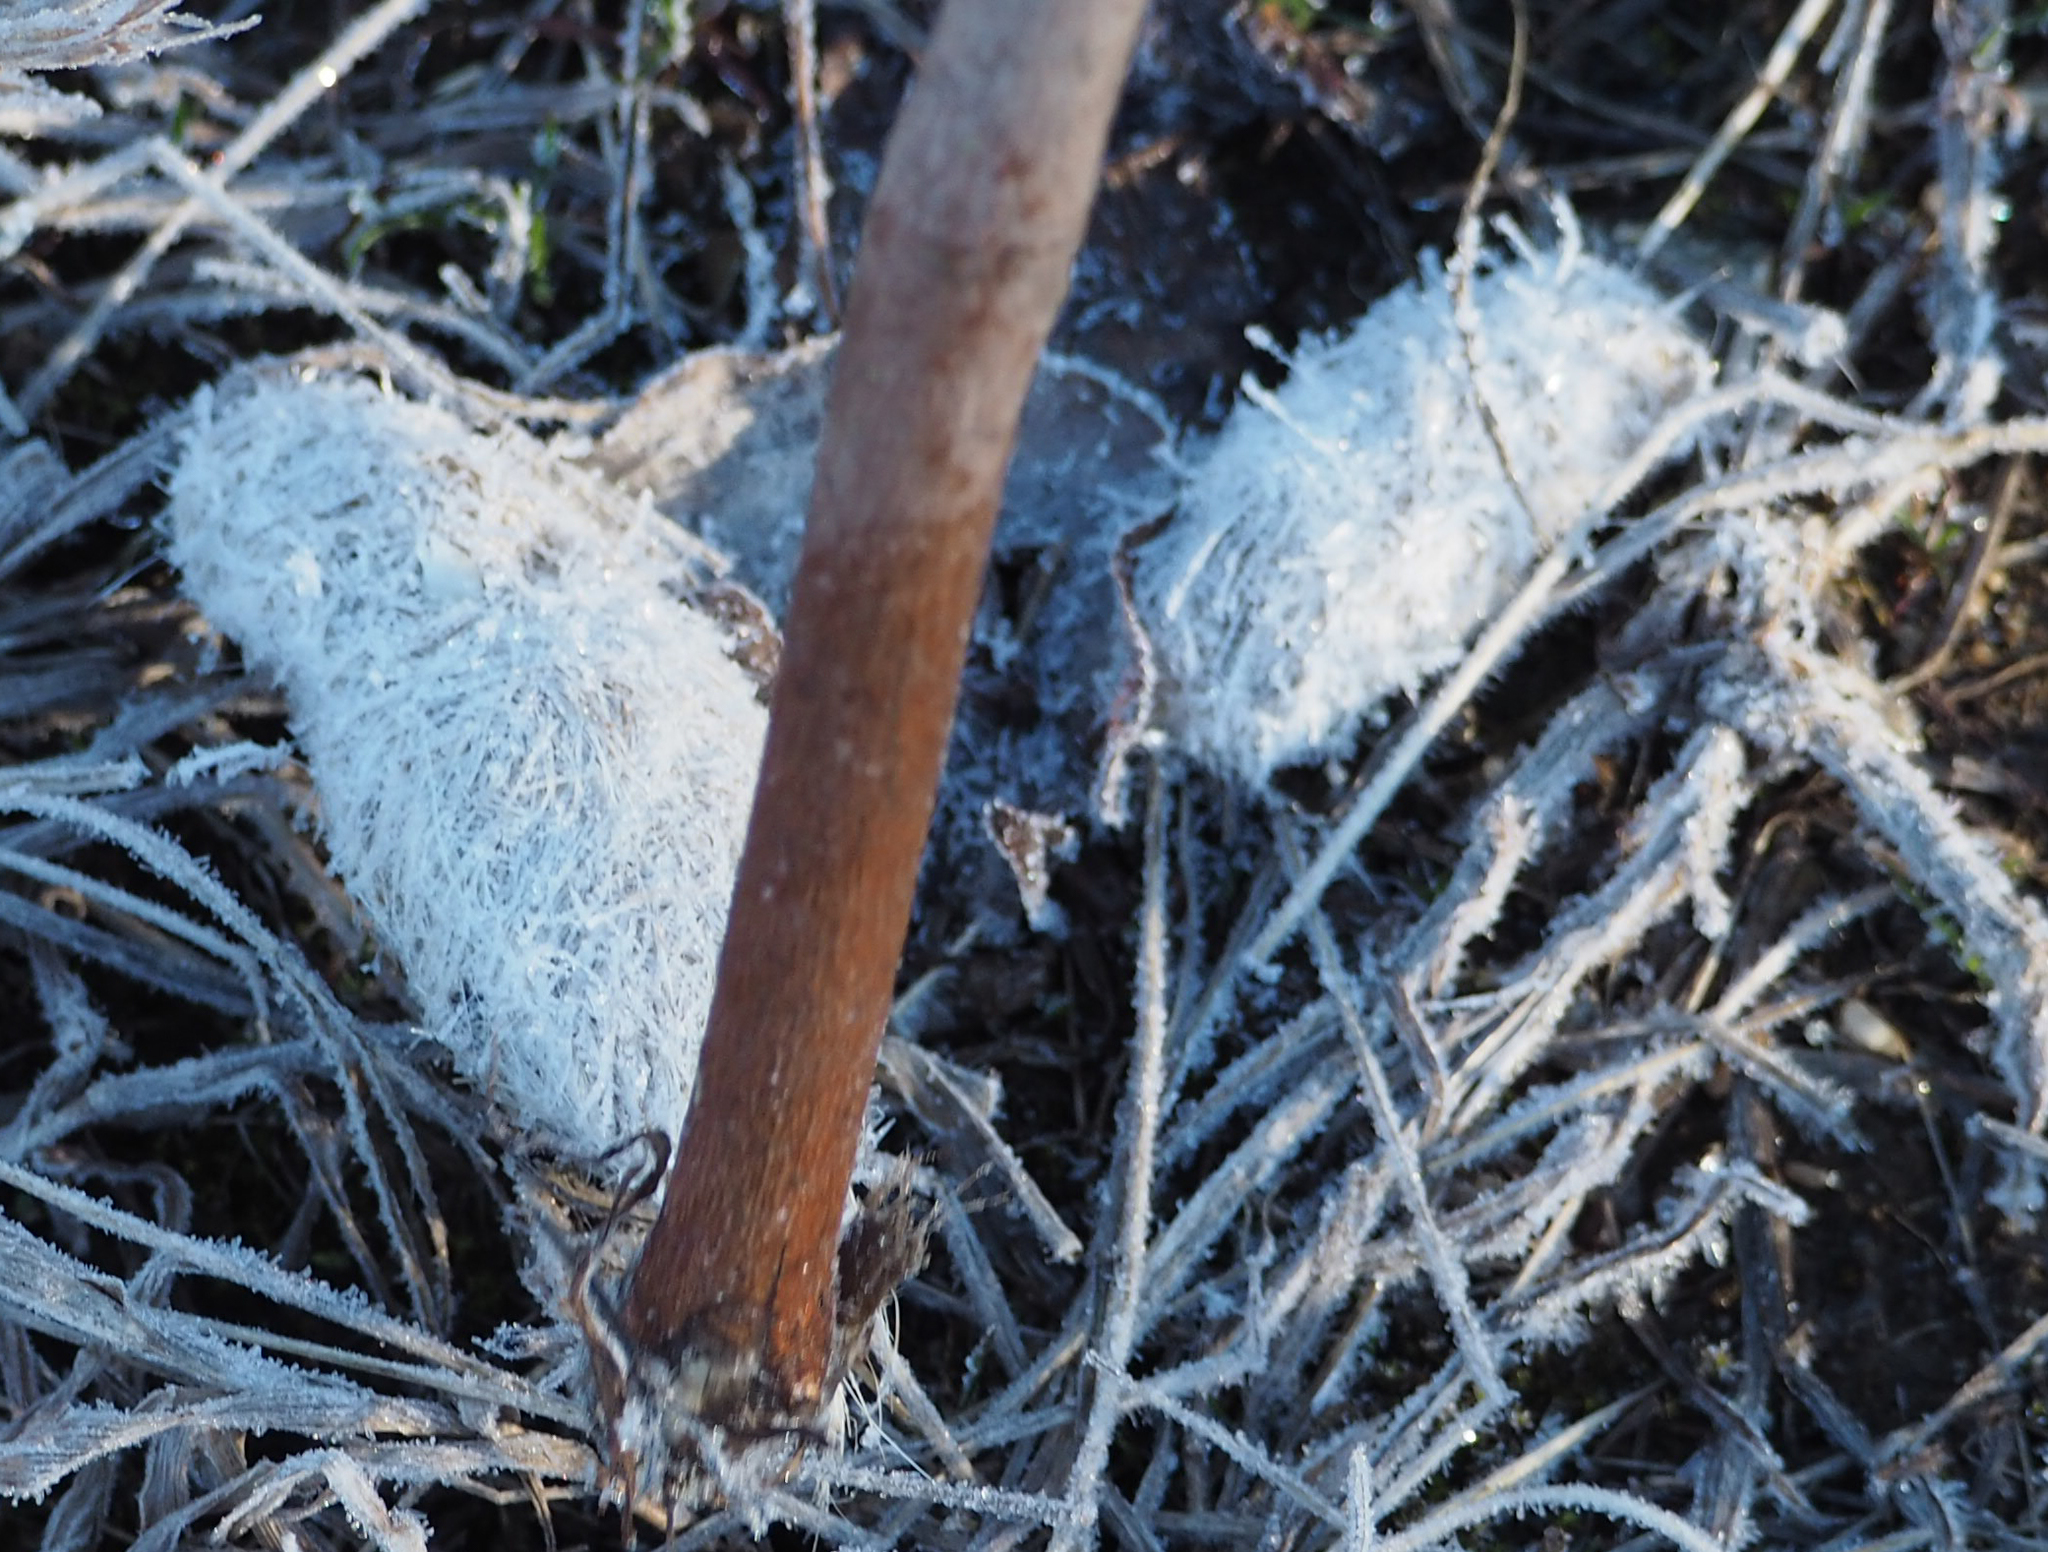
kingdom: Animalia
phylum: Chordata
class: Mammalia
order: Carnivora
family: Canidae
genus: Canis
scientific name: Canis latrans
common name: Coyote
